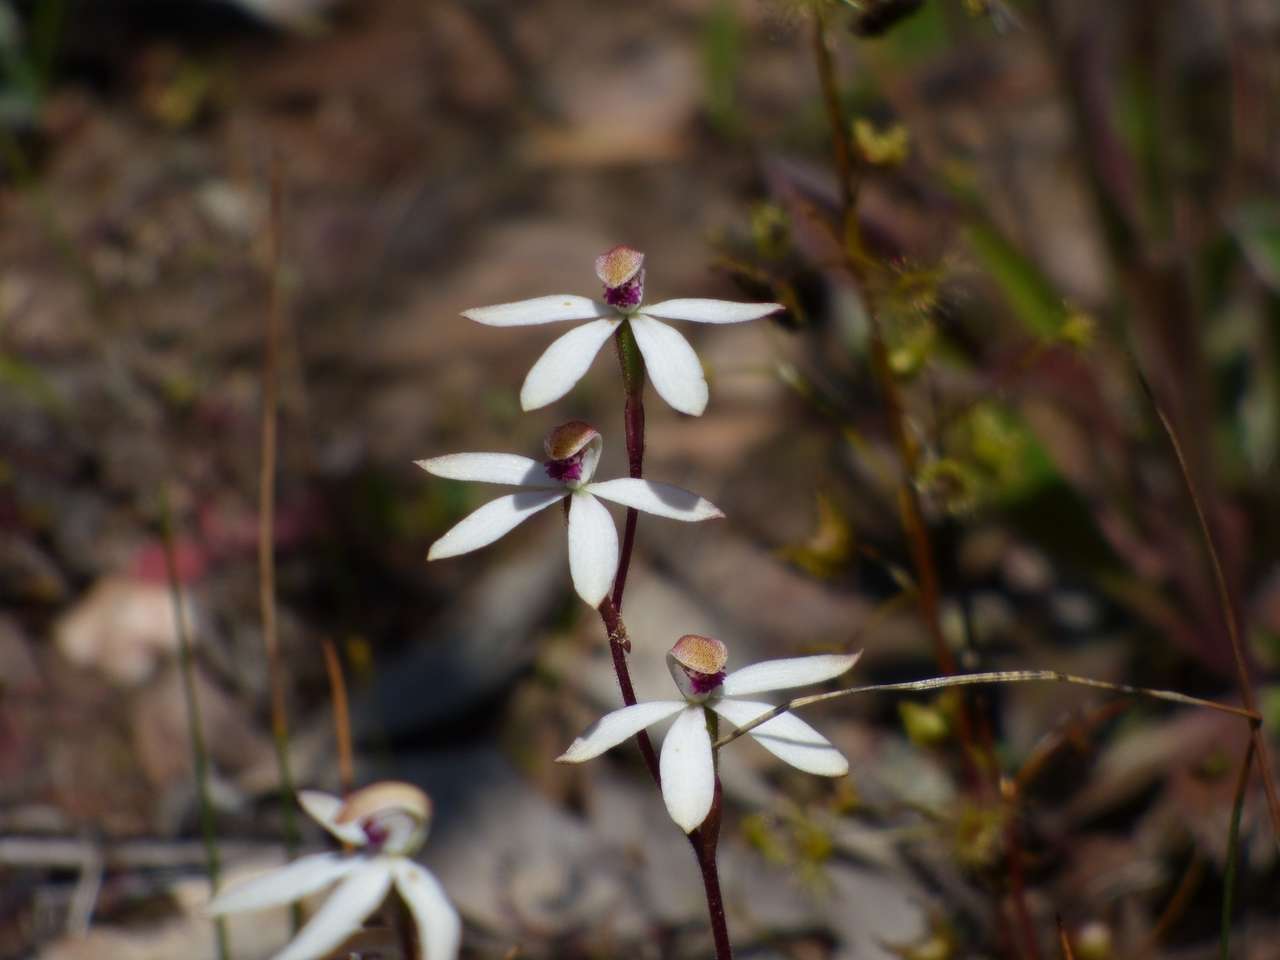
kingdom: Plantae
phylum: Tracheophyta
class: Liliopsida
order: Asparagales
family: Orchidaceae
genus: Caladenia
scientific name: Caladenia cucullata
